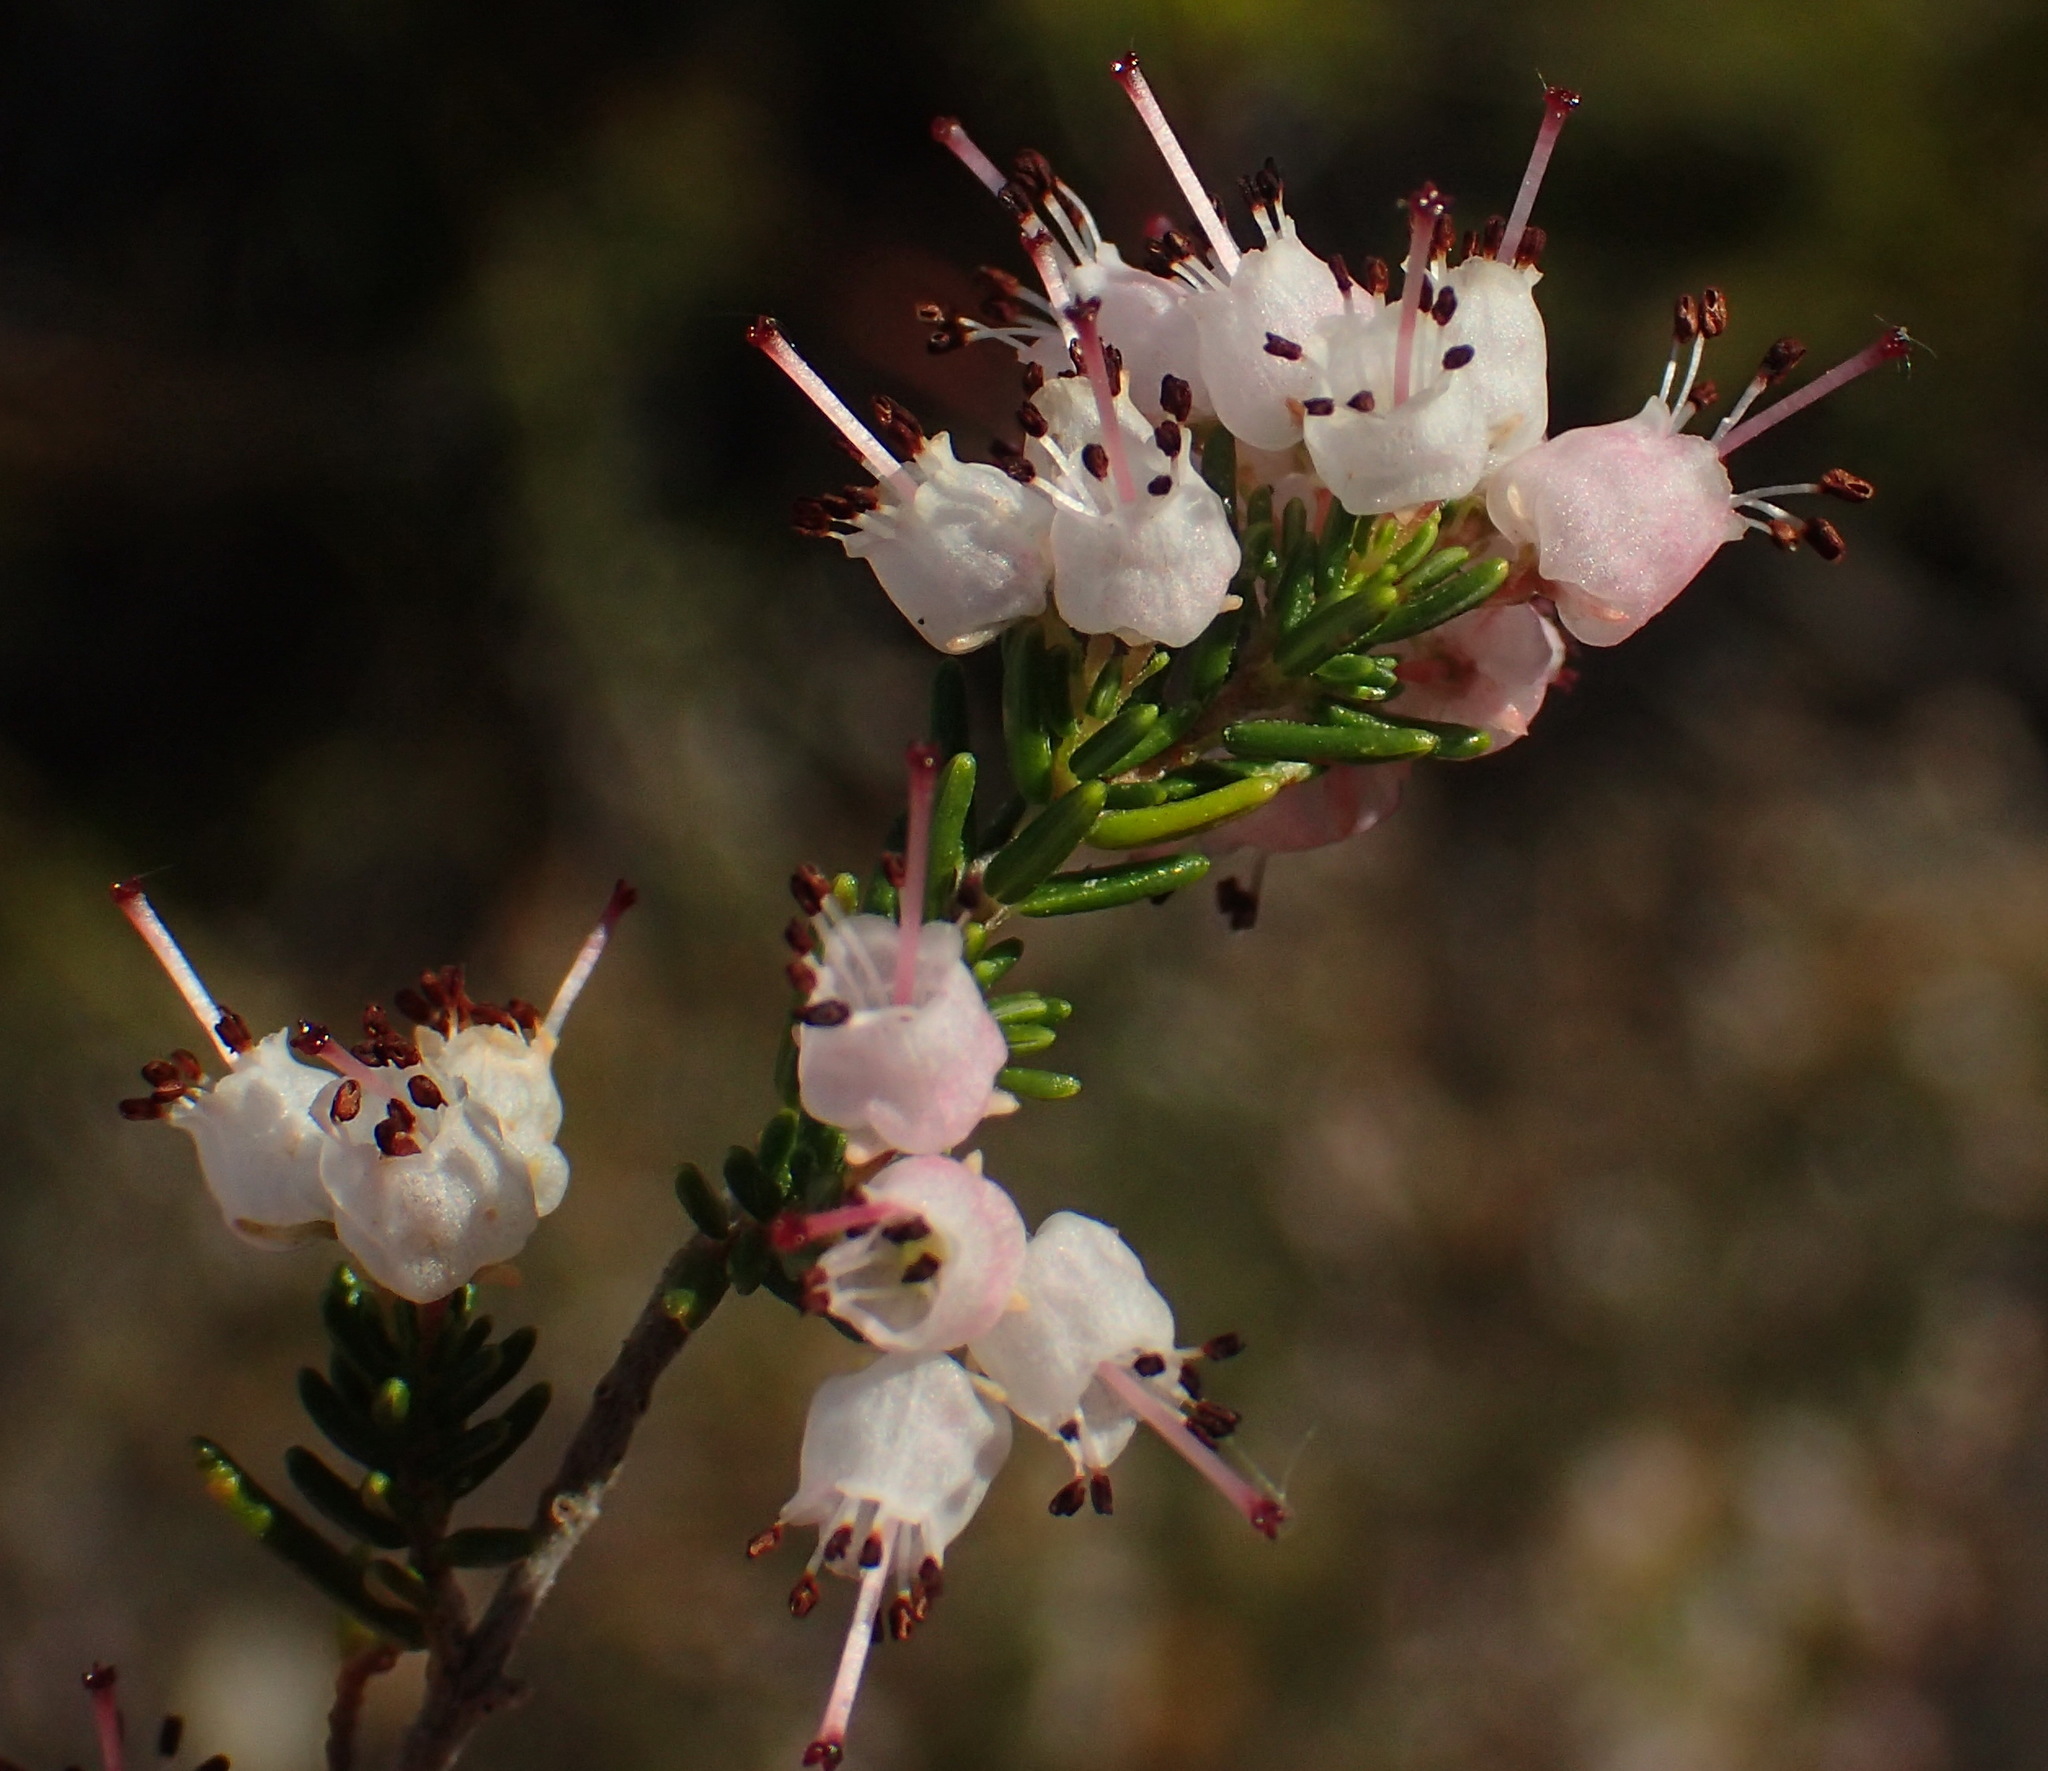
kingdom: Plantae
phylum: Tracheophyta
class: Magnoliopsida
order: Ericales
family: Ericaceae
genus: Erica
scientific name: Erica demissa
